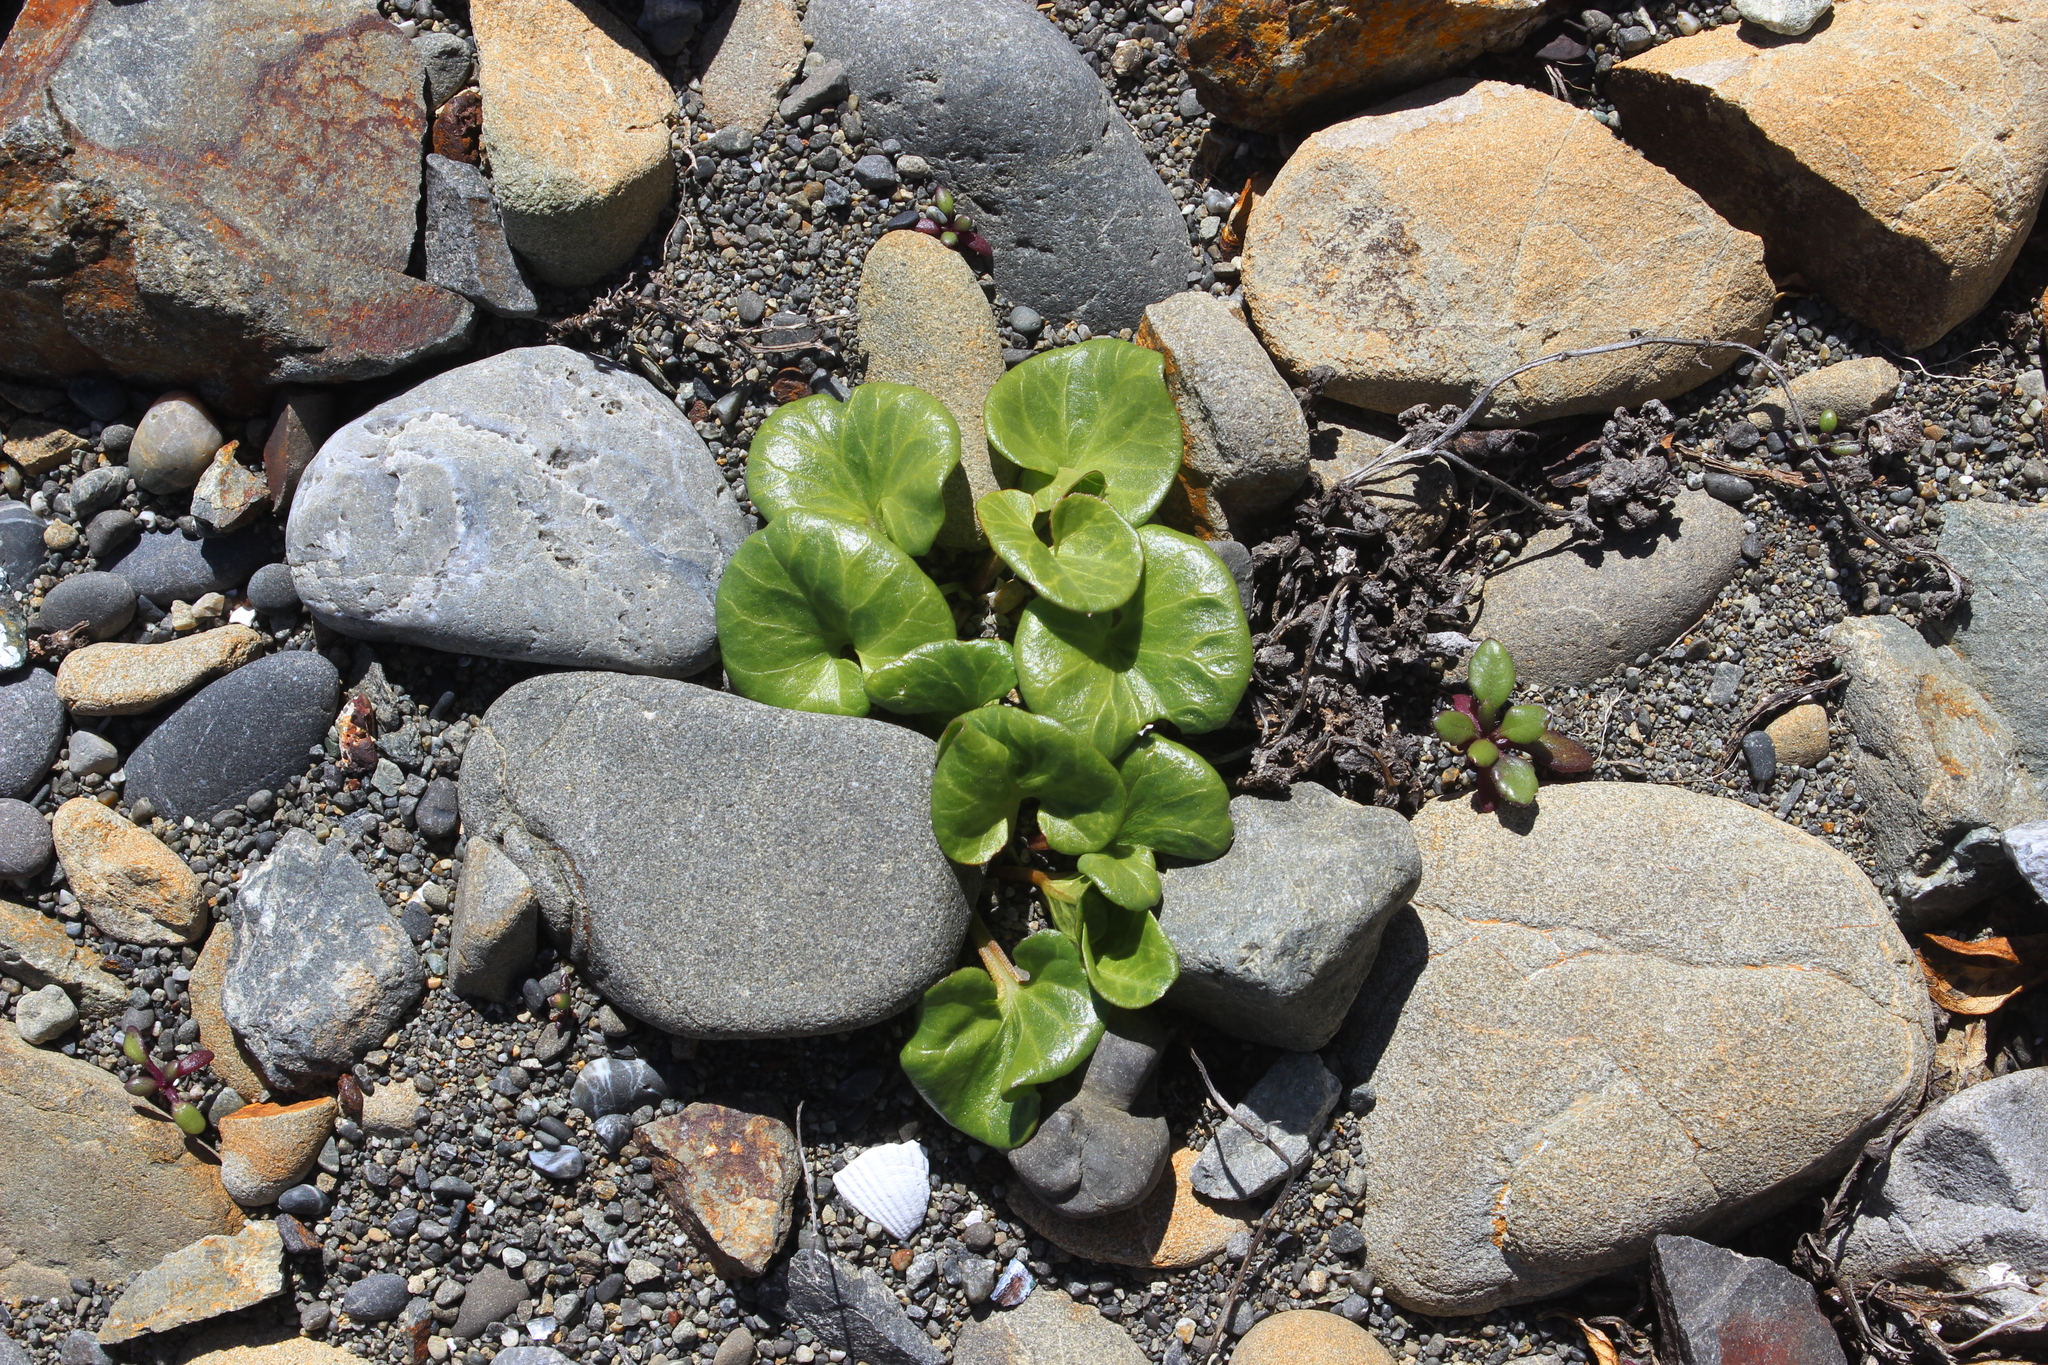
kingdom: Plantae
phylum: Tracheophyta
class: Magnoliopsida
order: Solanales
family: Convolvulaceae
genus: Calystegia
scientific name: Calystegia soldanella
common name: Sea bindweed
